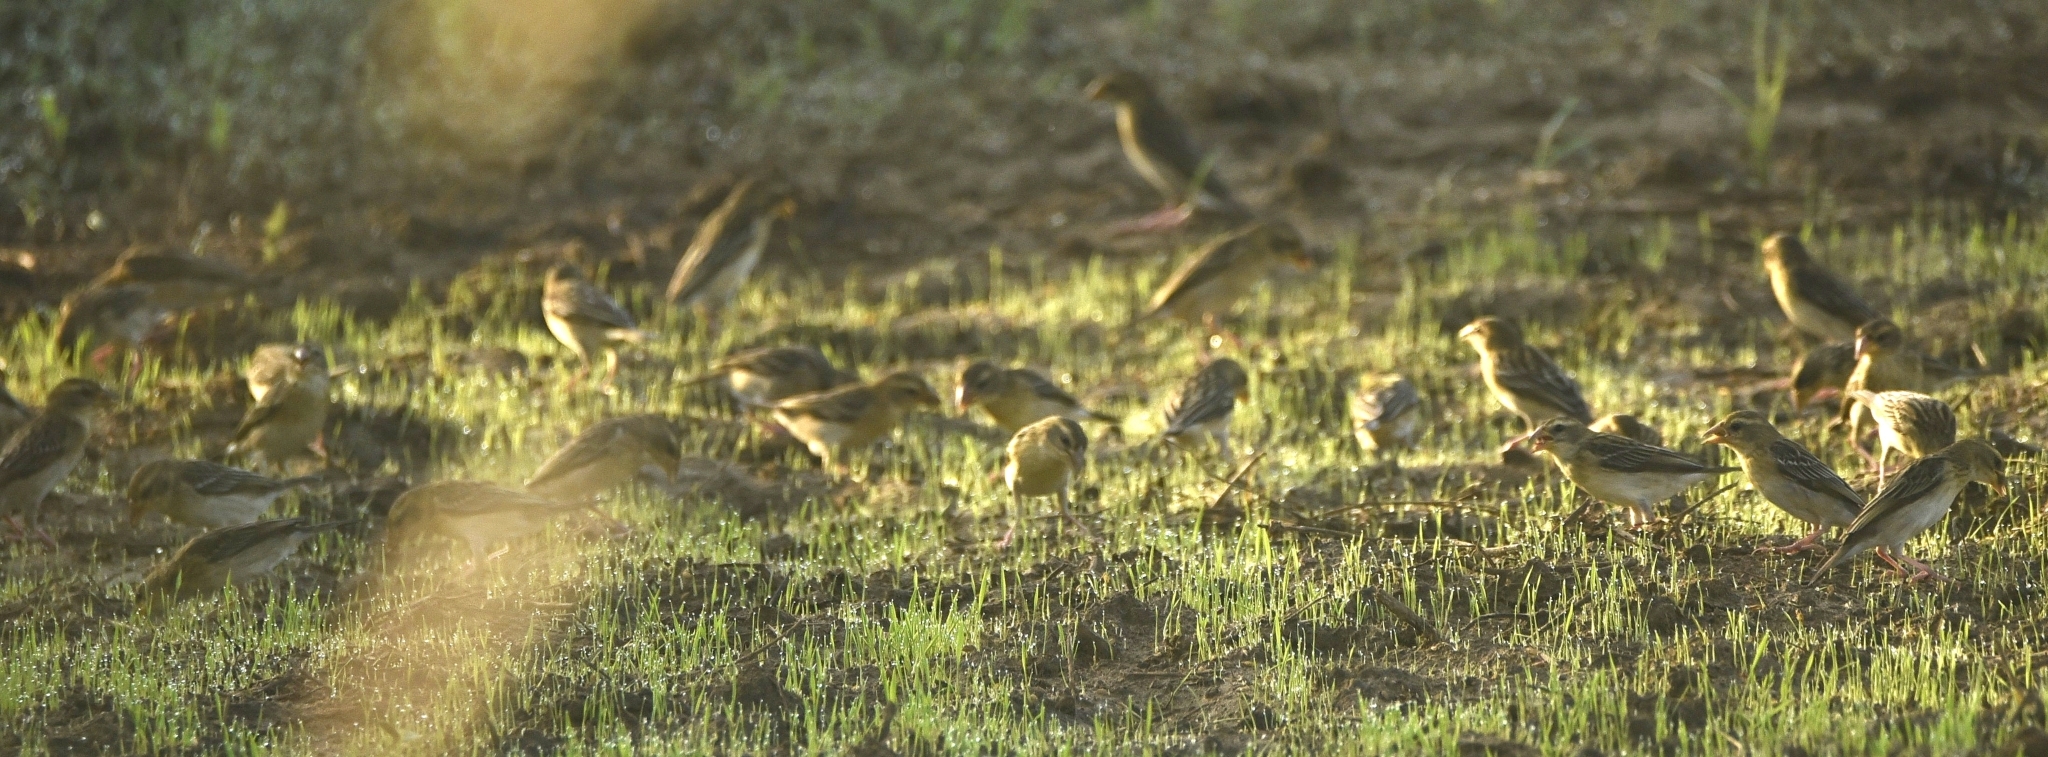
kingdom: Animalia
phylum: Chordata
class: Aves
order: Passeriformes
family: Ploceidae
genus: Ploceus
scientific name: Ploceus philippinus
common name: Baya weaver
